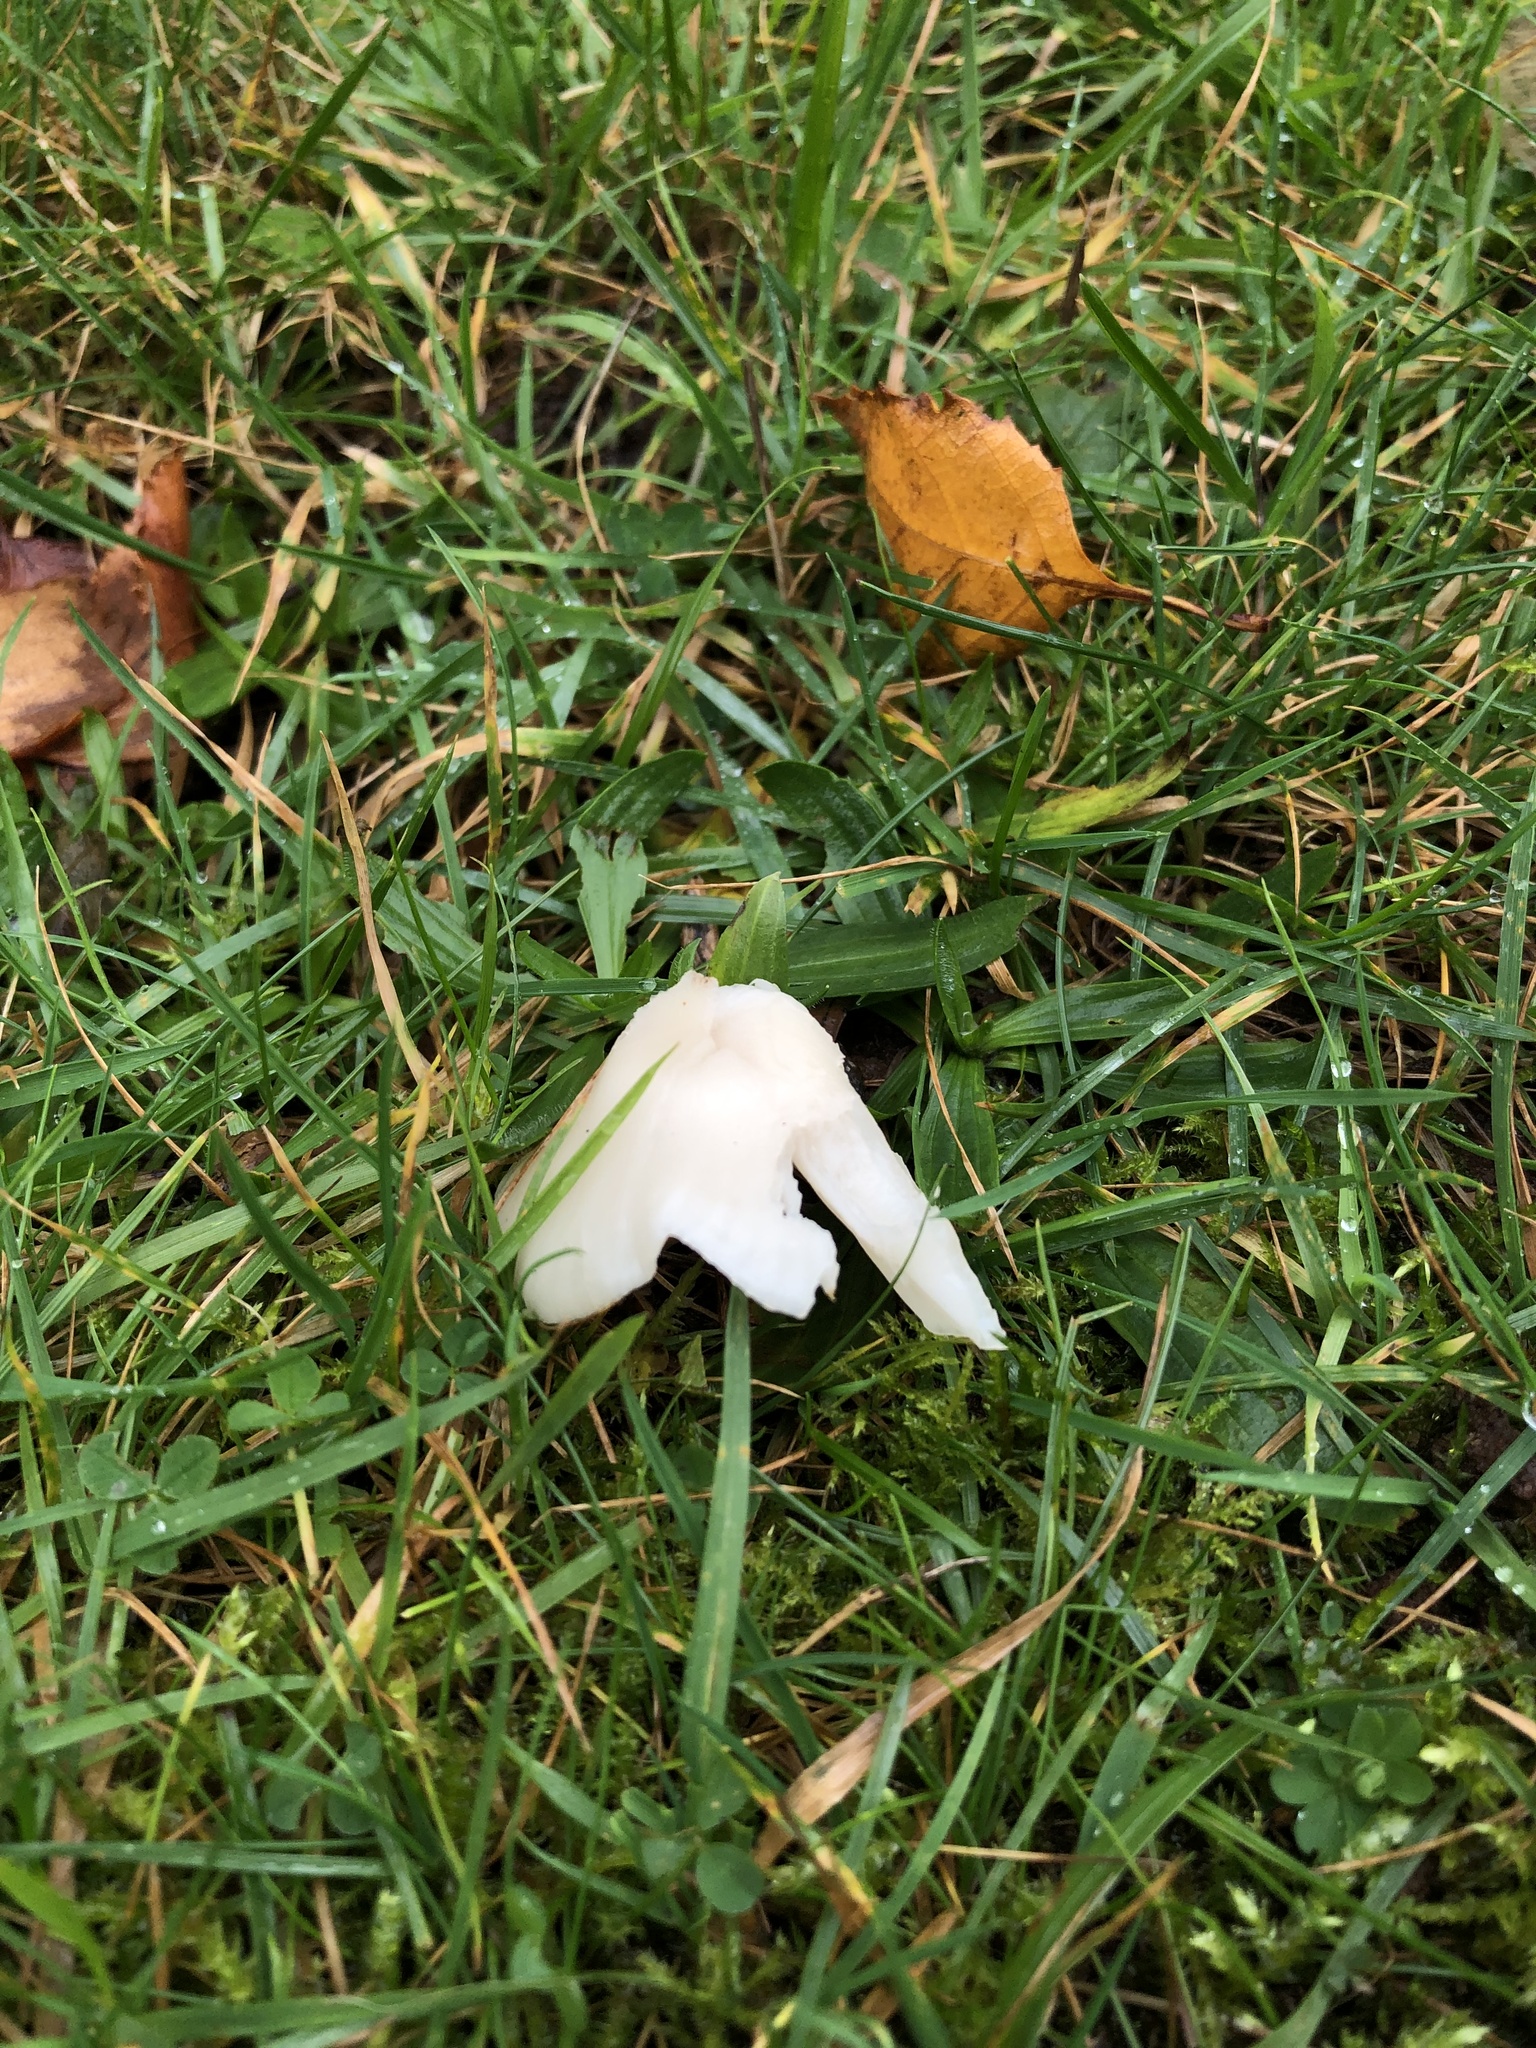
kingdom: Fungi
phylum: Basidiomycota
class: Agaricomycetes
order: Agaricales
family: Hygrophoraceae
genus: Cuphophyllus
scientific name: Cuphophyllus virgineus
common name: Snowy waxcap
